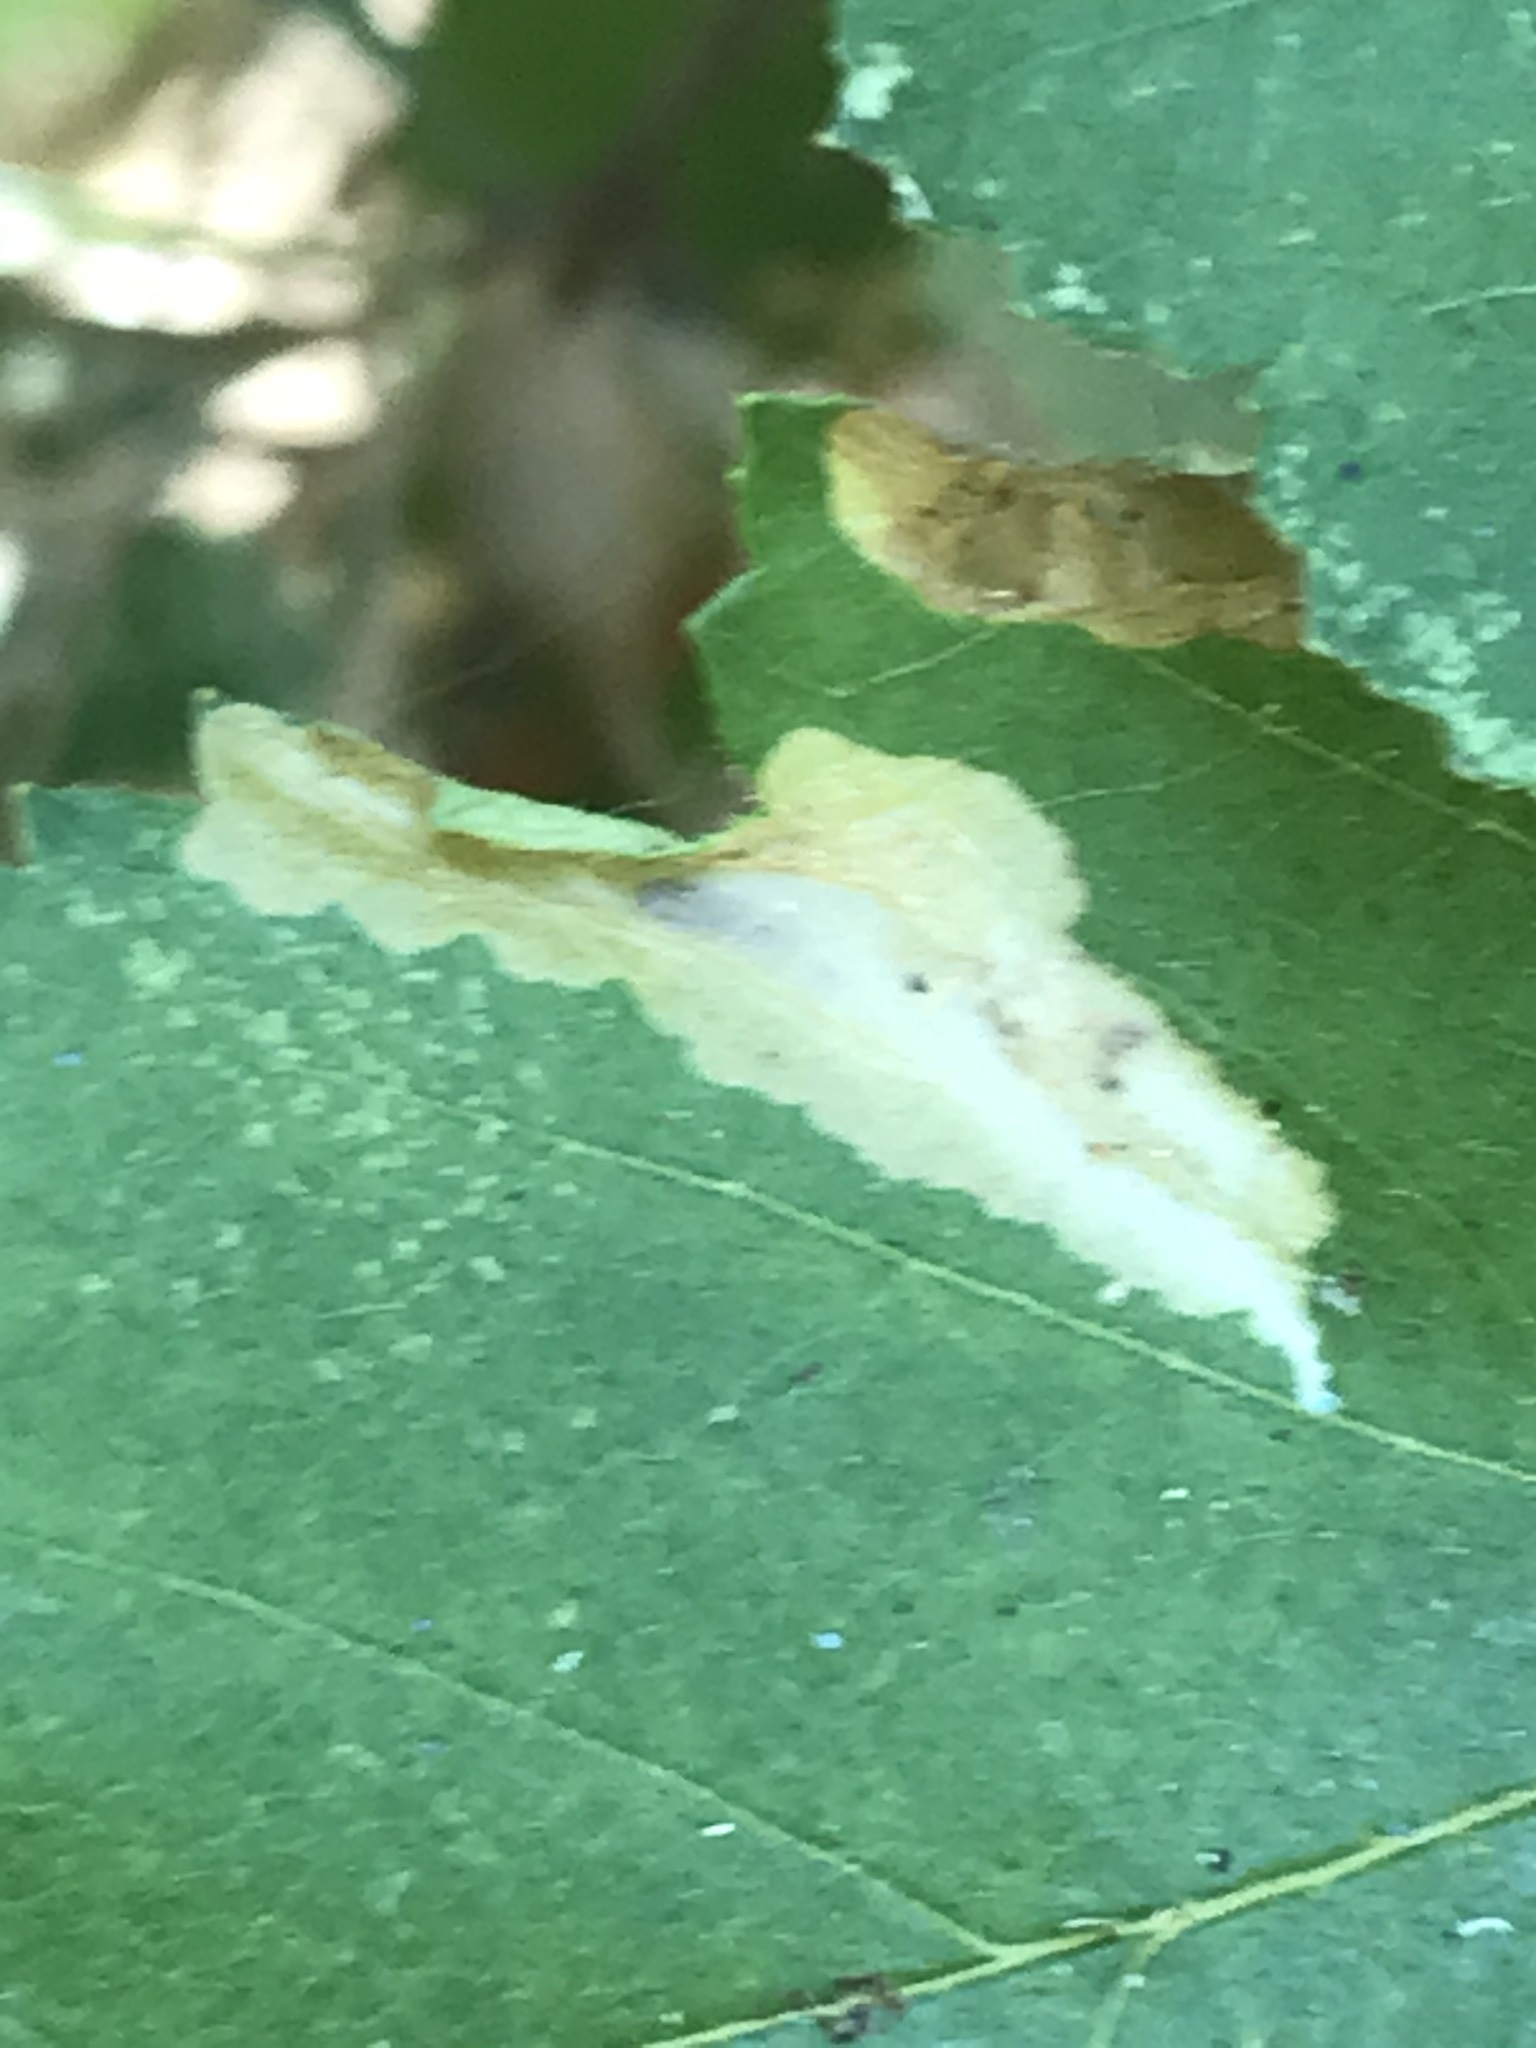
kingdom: Animalia
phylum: Arthropoda
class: Insecta
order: Lepidoptera
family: Tischeriidae
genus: Coptotriche
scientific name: Coptotriche crataegifoliae
